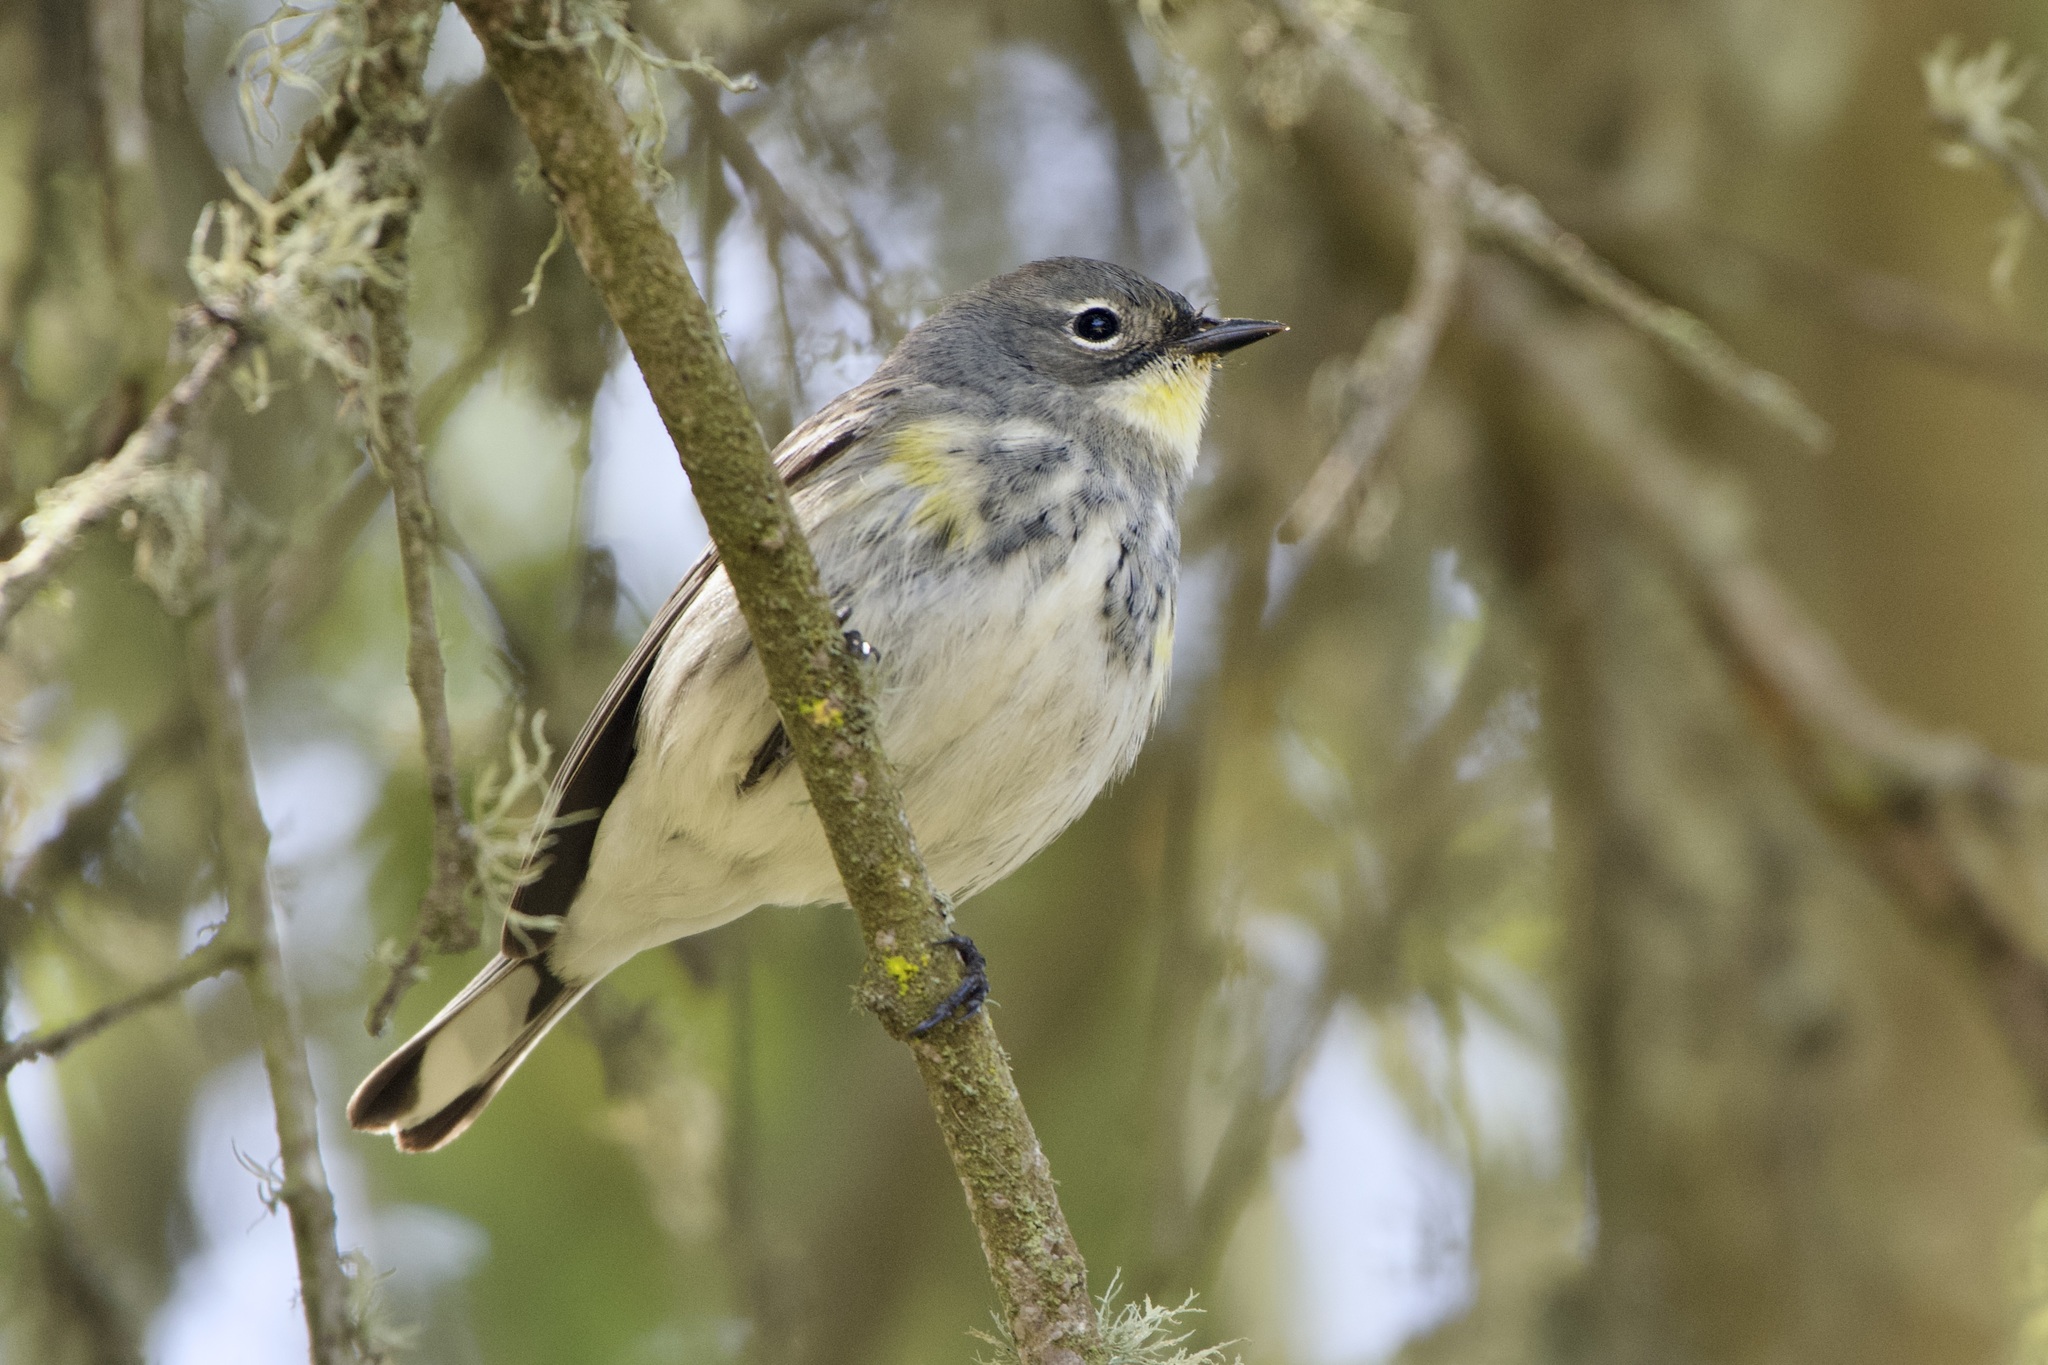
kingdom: Animalia
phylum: Chordata
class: Aves
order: Passeriformes
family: Parulidae
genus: Setophaga
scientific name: Setophaga coronata
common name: Myrtle warbler
